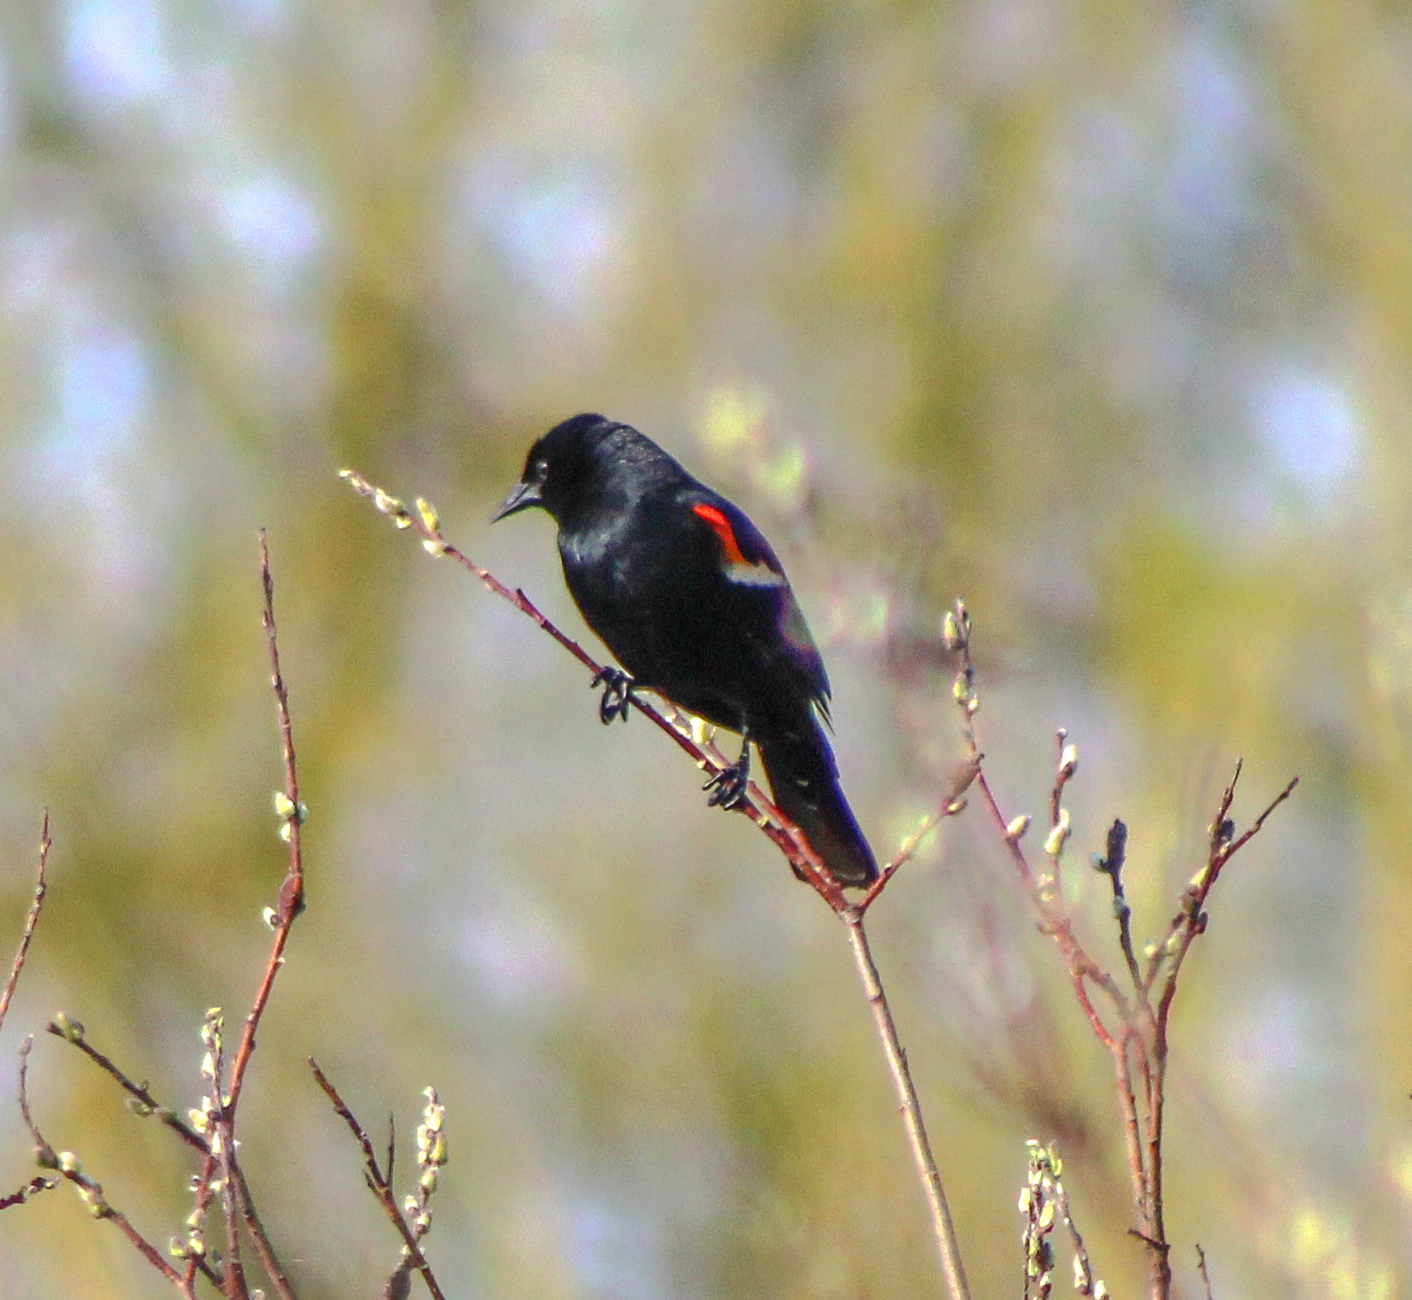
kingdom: Animalia
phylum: Chordata
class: Aves
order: Passeriformes
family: Icteridae
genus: Agelaius
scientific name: Agelaius phoeniceus
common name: Red-winged blackbird
